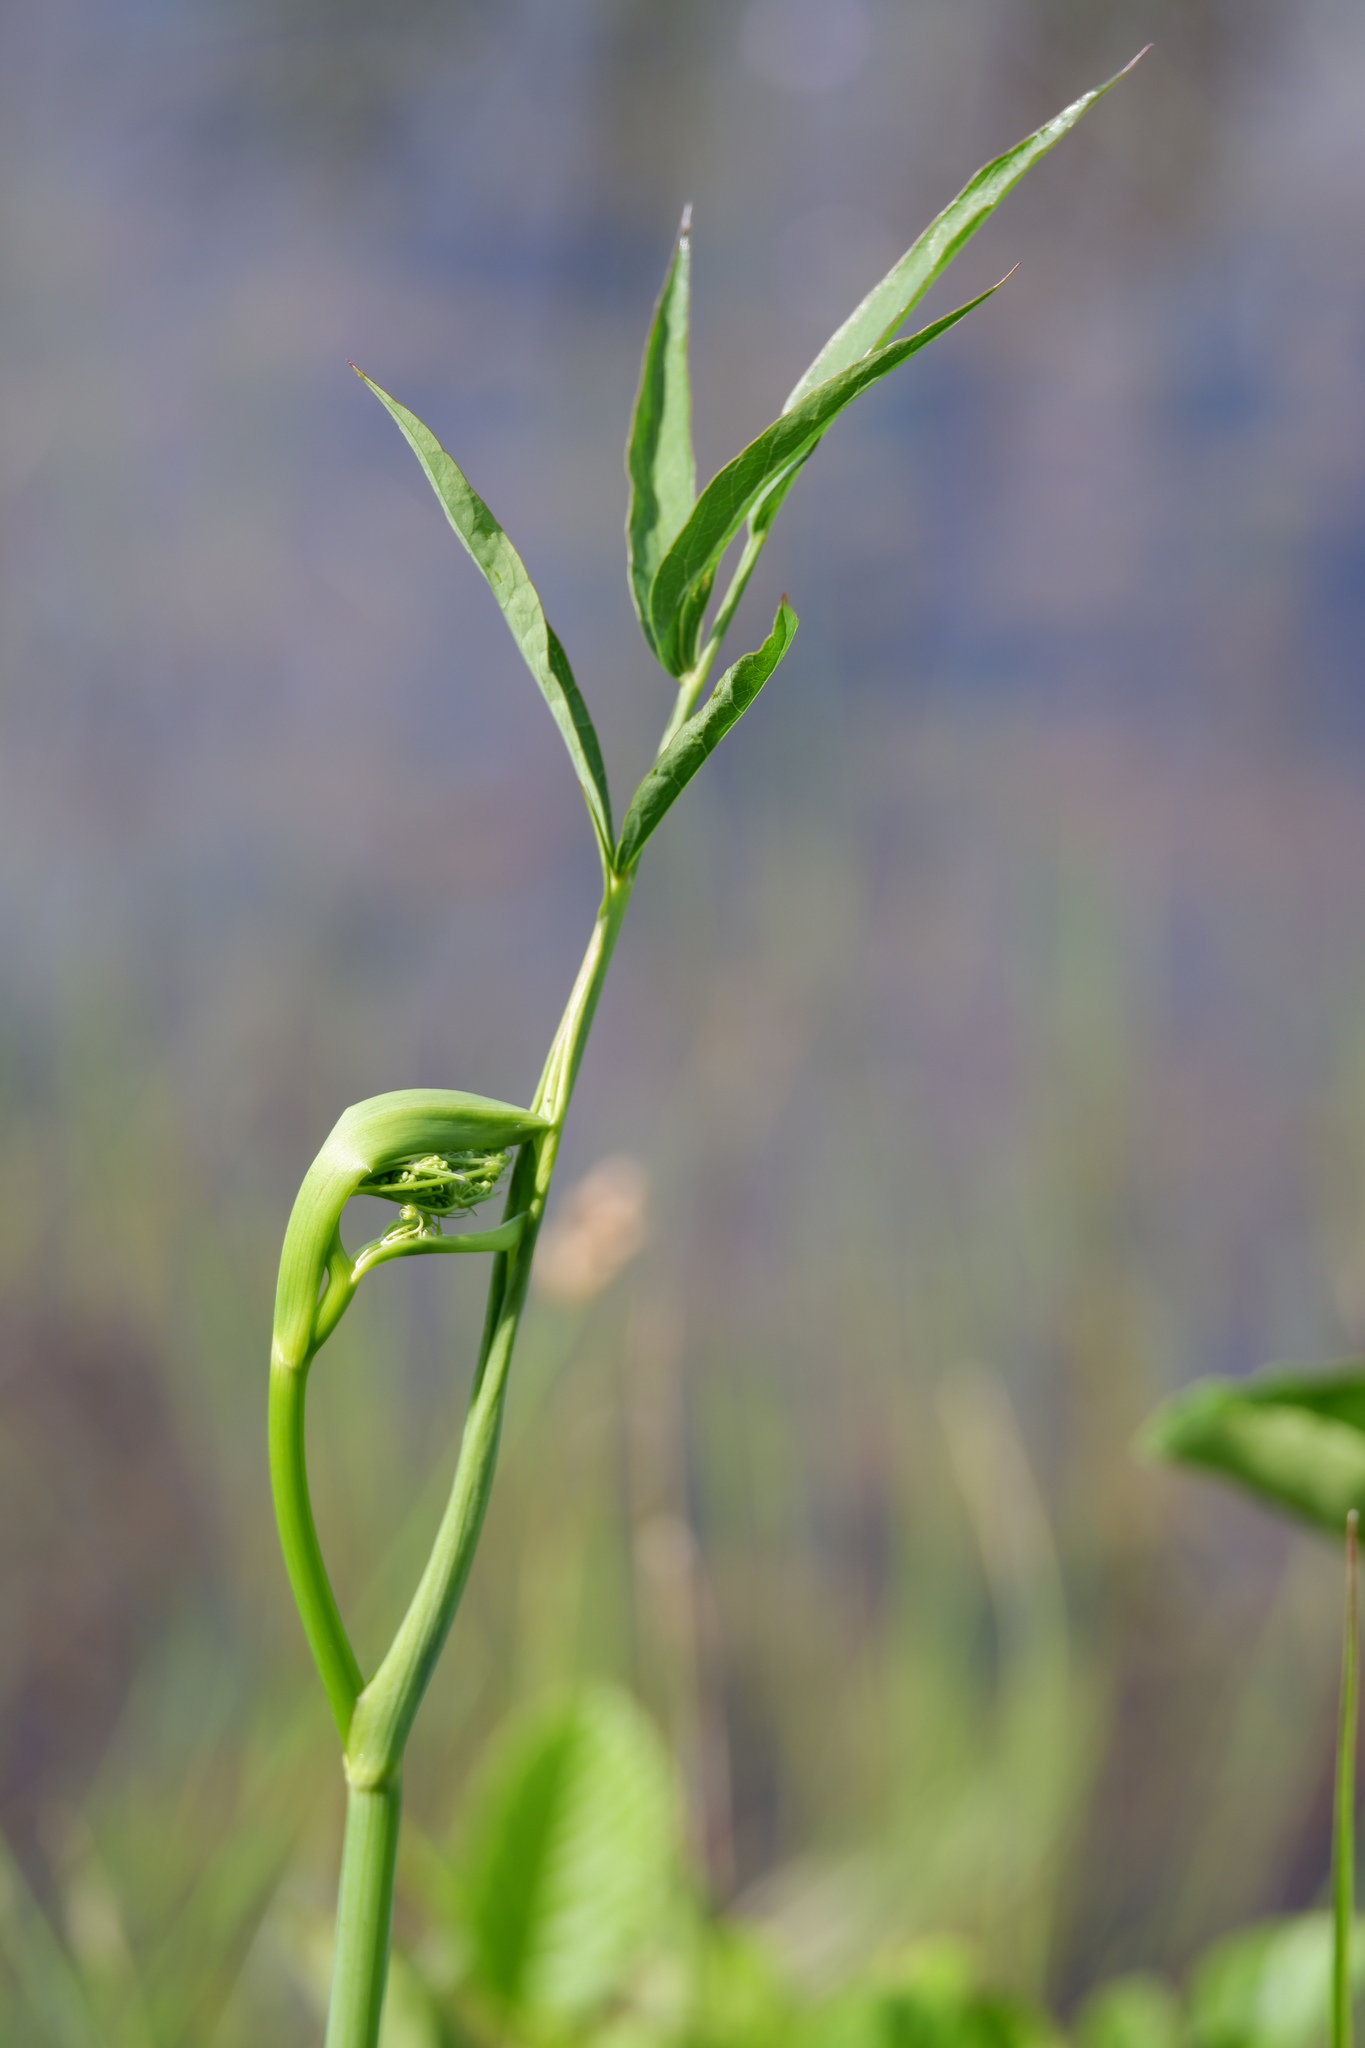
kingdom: Plantae
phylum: Tracheophyta
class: Magnoliopsida
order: Apiales
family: Apiaceae
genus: Oxypolis
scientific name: Oxypolis rigidior
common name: Cowbane
